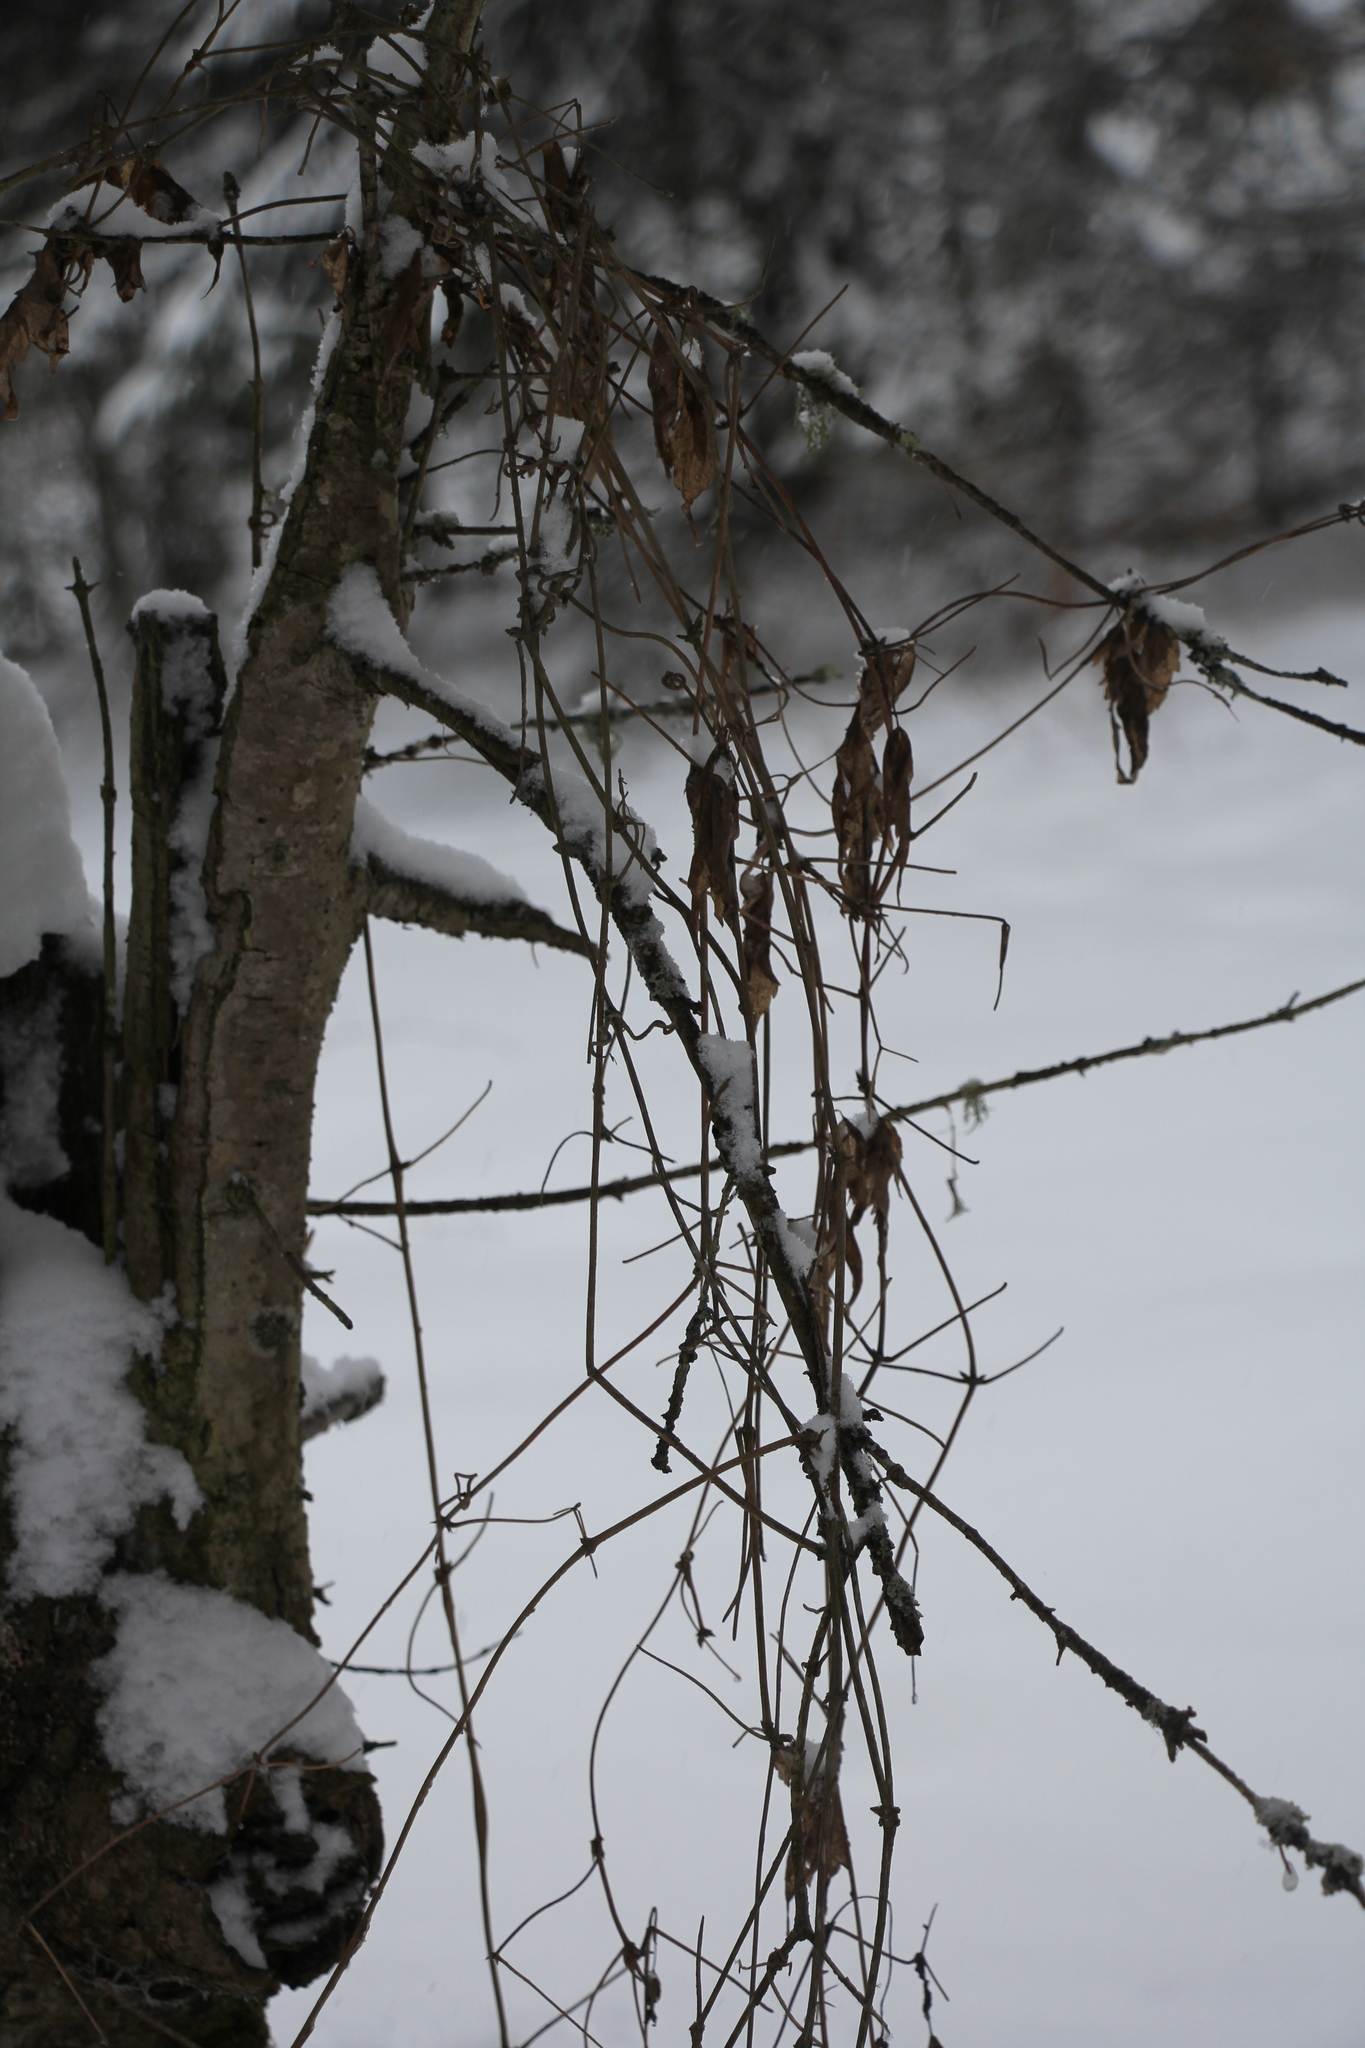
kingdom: Plantae
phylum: Tracheophyta
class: Magnoliopsida
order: Ranunculales
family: Ranunculaceae
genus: Clematis
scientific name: Clematis sibirica
